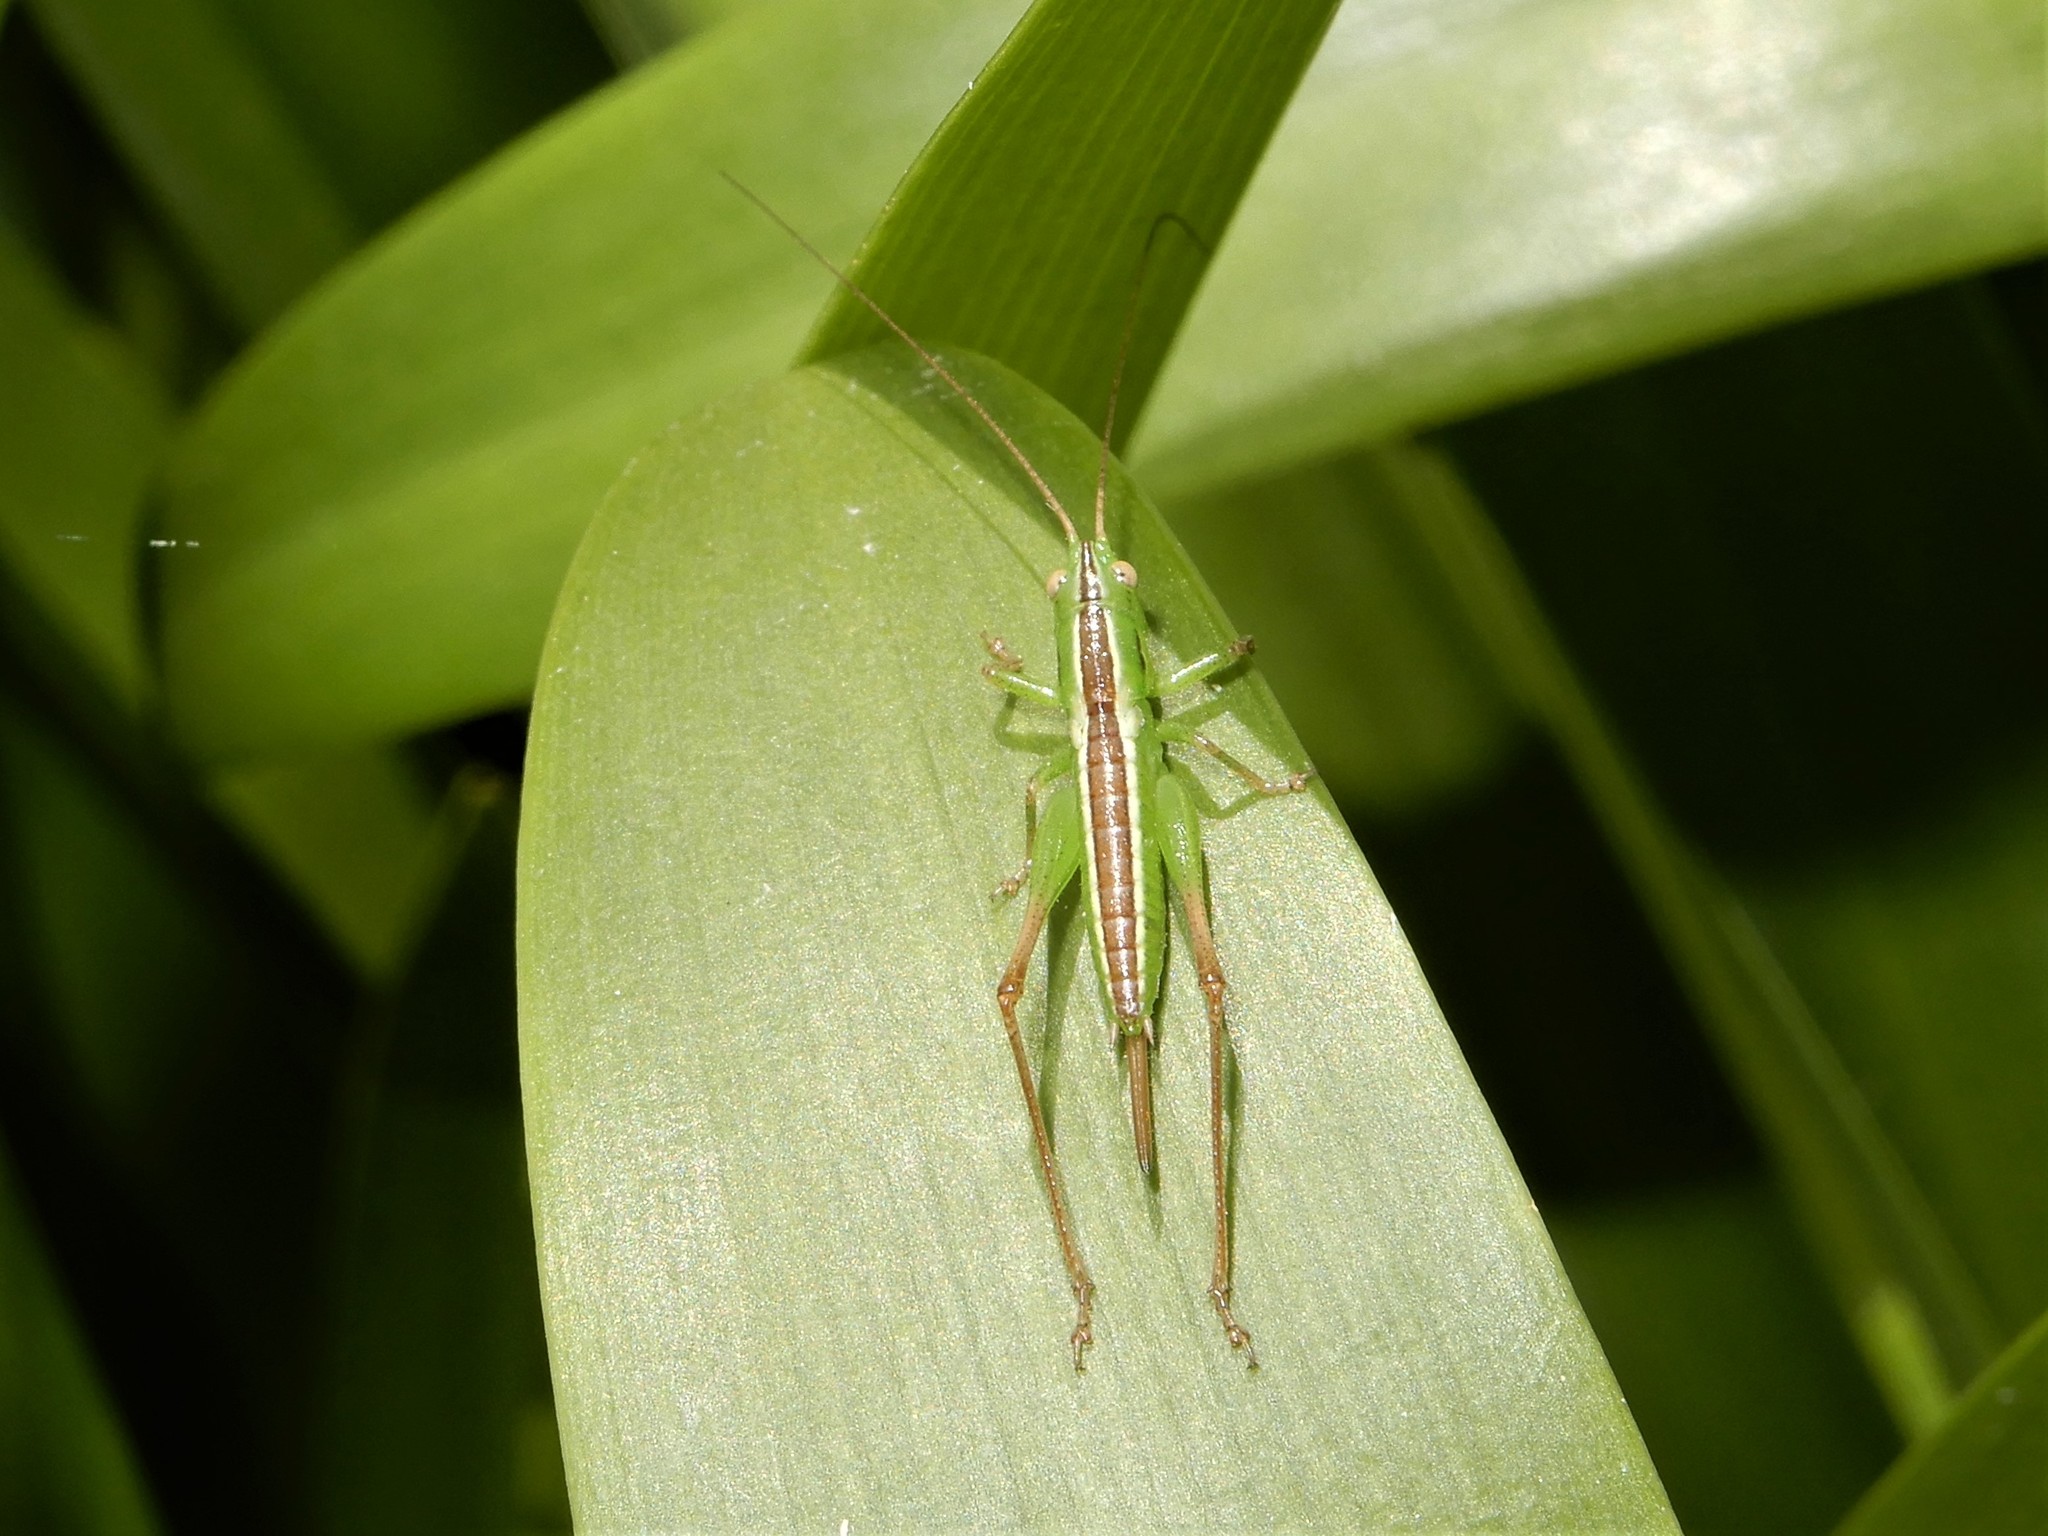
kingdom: Animalia
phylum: Arthropoda
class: Insecta
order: Orthoptera
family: Tettigoniidae
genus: Conocephalus
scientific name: Conocephalus bilineatus
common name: Small meadow katydid
